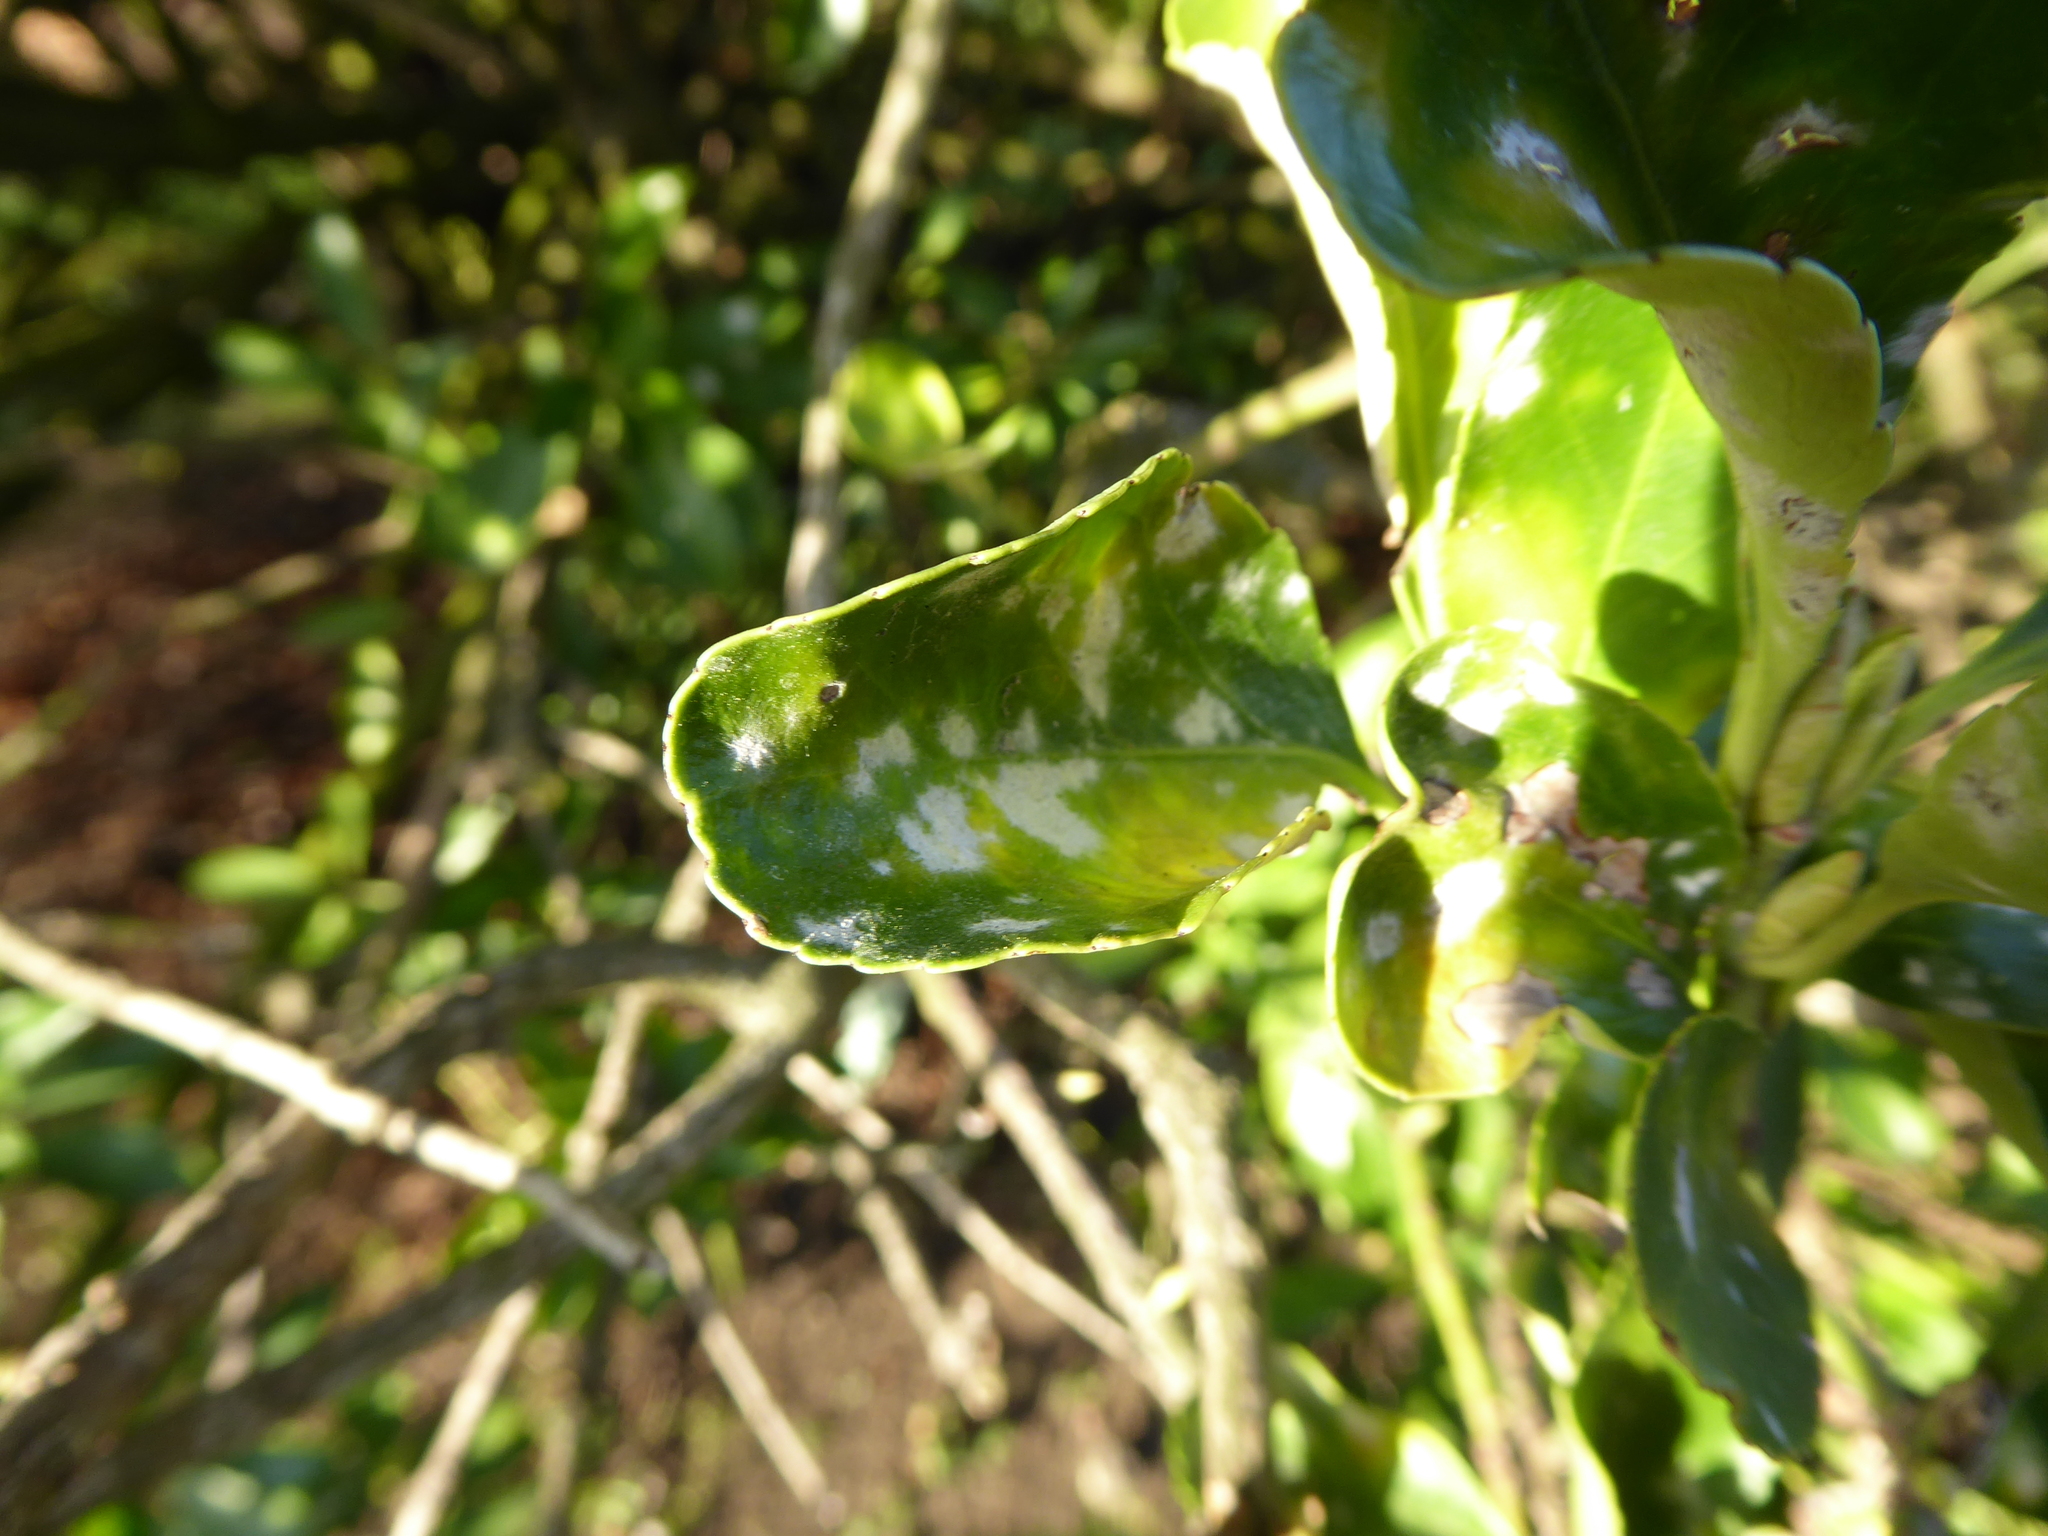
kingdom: Fungi
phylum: Ascomycota
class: Leotiomycetes
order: Helotiales
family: Erysiphaceae
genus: Erysiphe
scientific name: Erysiphe euonymicola
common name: Spindletree mildew
